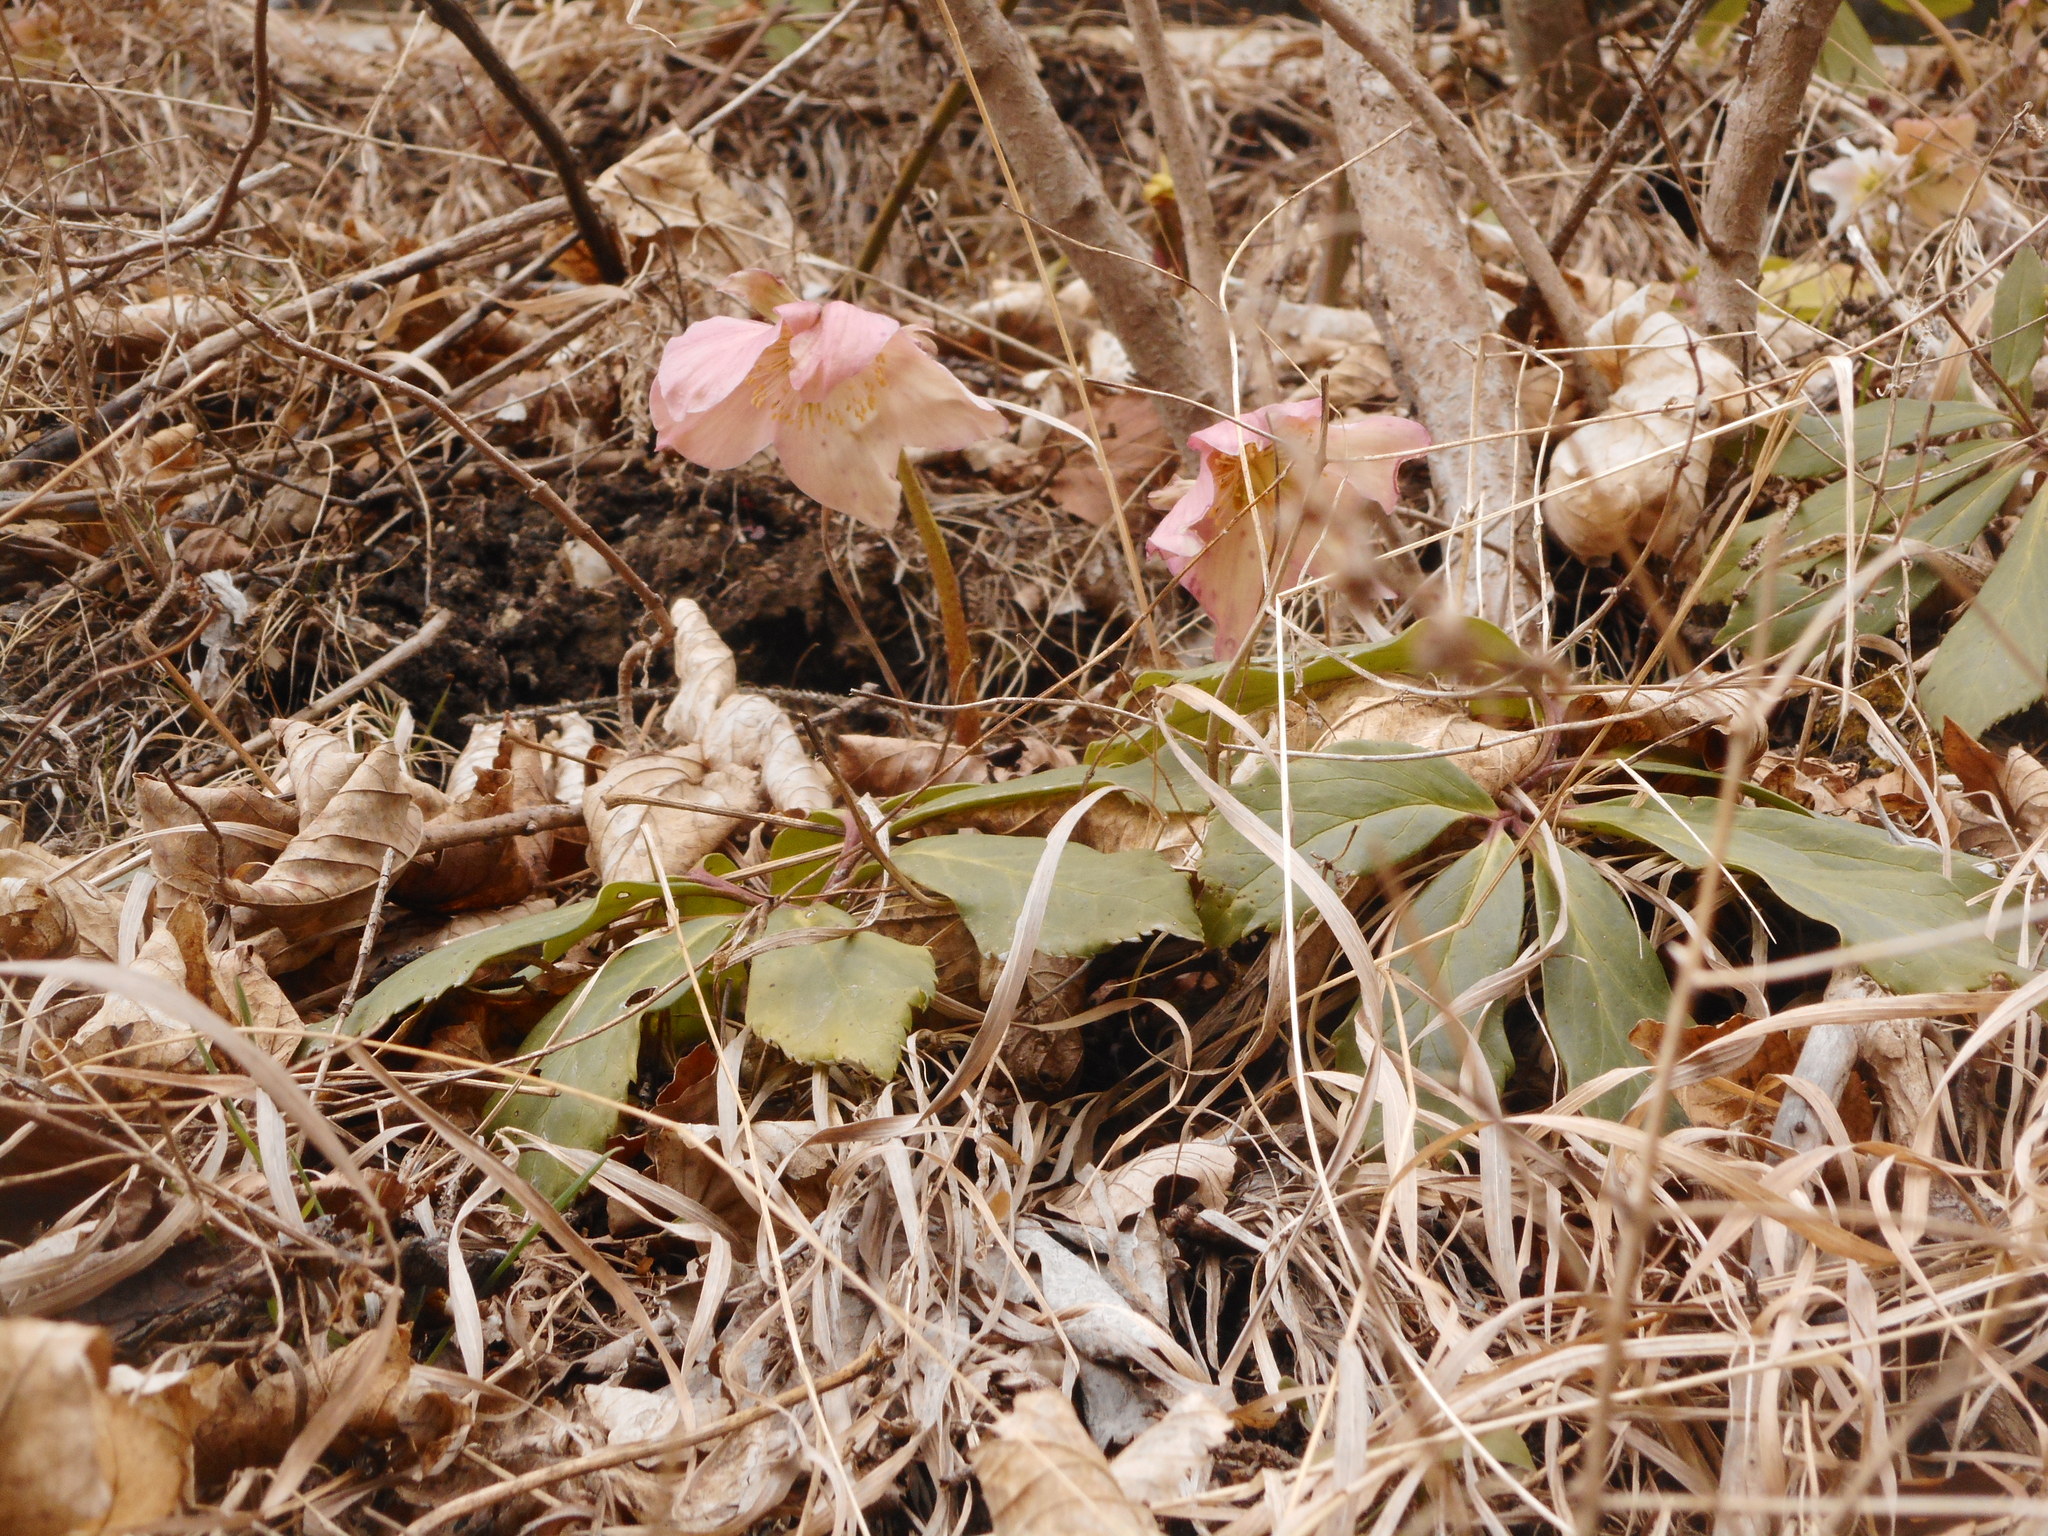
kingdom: Plantae
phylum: Tracheophyta
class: Magnoliopsida
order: Ranunculales
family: Ranunculaceae
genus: Helleborus
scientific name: Helleborus niger
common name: Black hellebore
